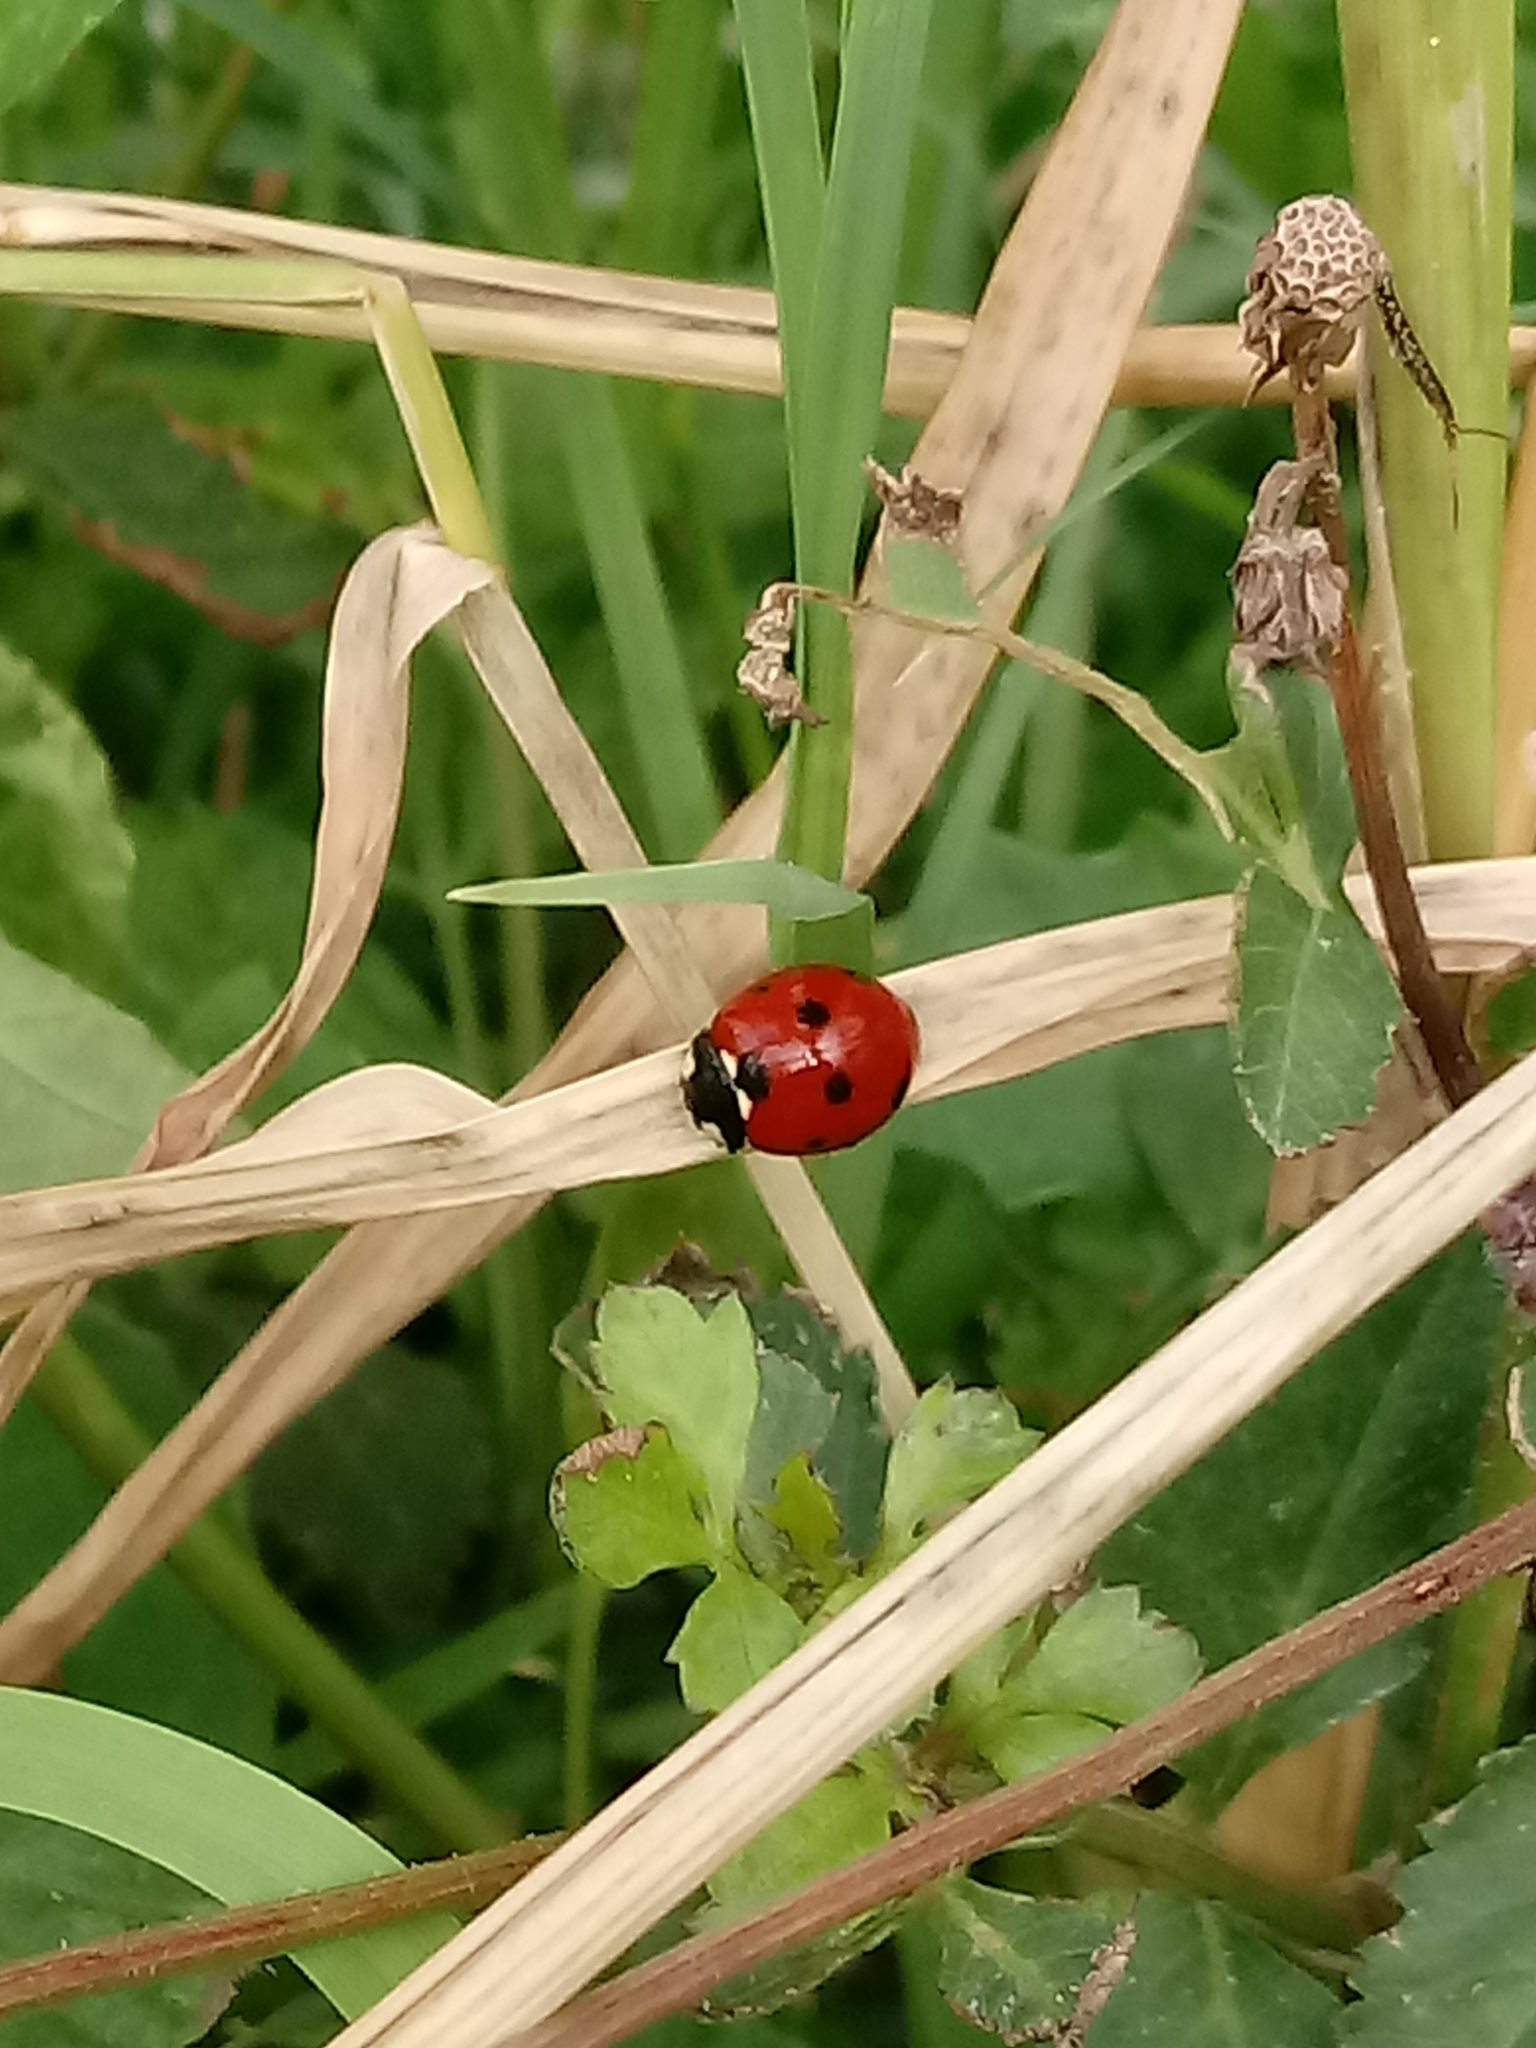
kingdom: Animalia
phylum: Arthropoda
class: Insecta
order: Coleoptera
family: Coccinellidae
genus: Coccinella
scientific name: Coccinella septempunctata
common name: Sevenspotted lady beetle
